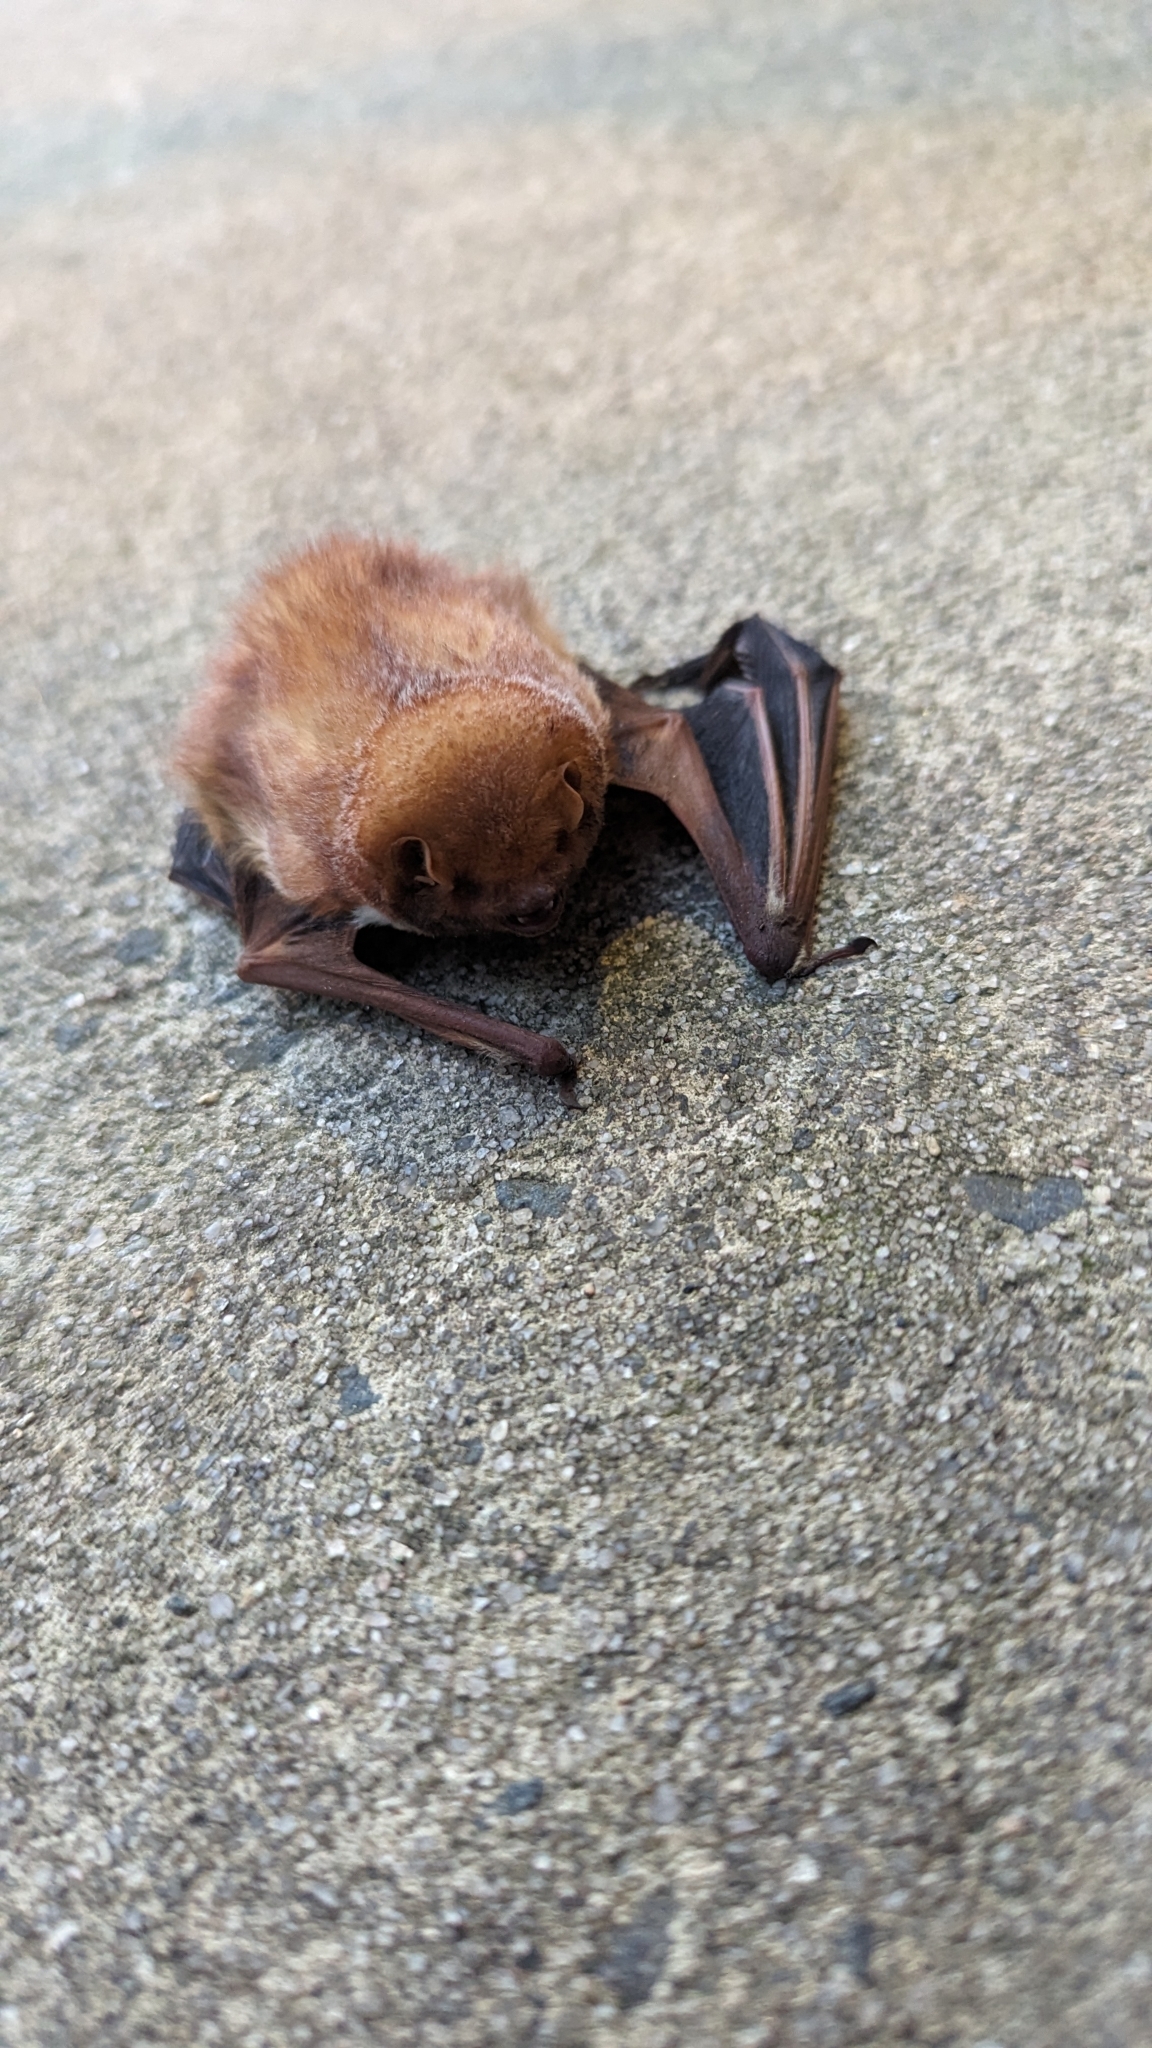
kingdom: Animalia
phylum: Chordata
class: Mammalia
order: Chiroptera
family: Vespertilionidae
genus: Lasiurus
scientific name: Lasiurus borealis
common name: Eastern red bat
